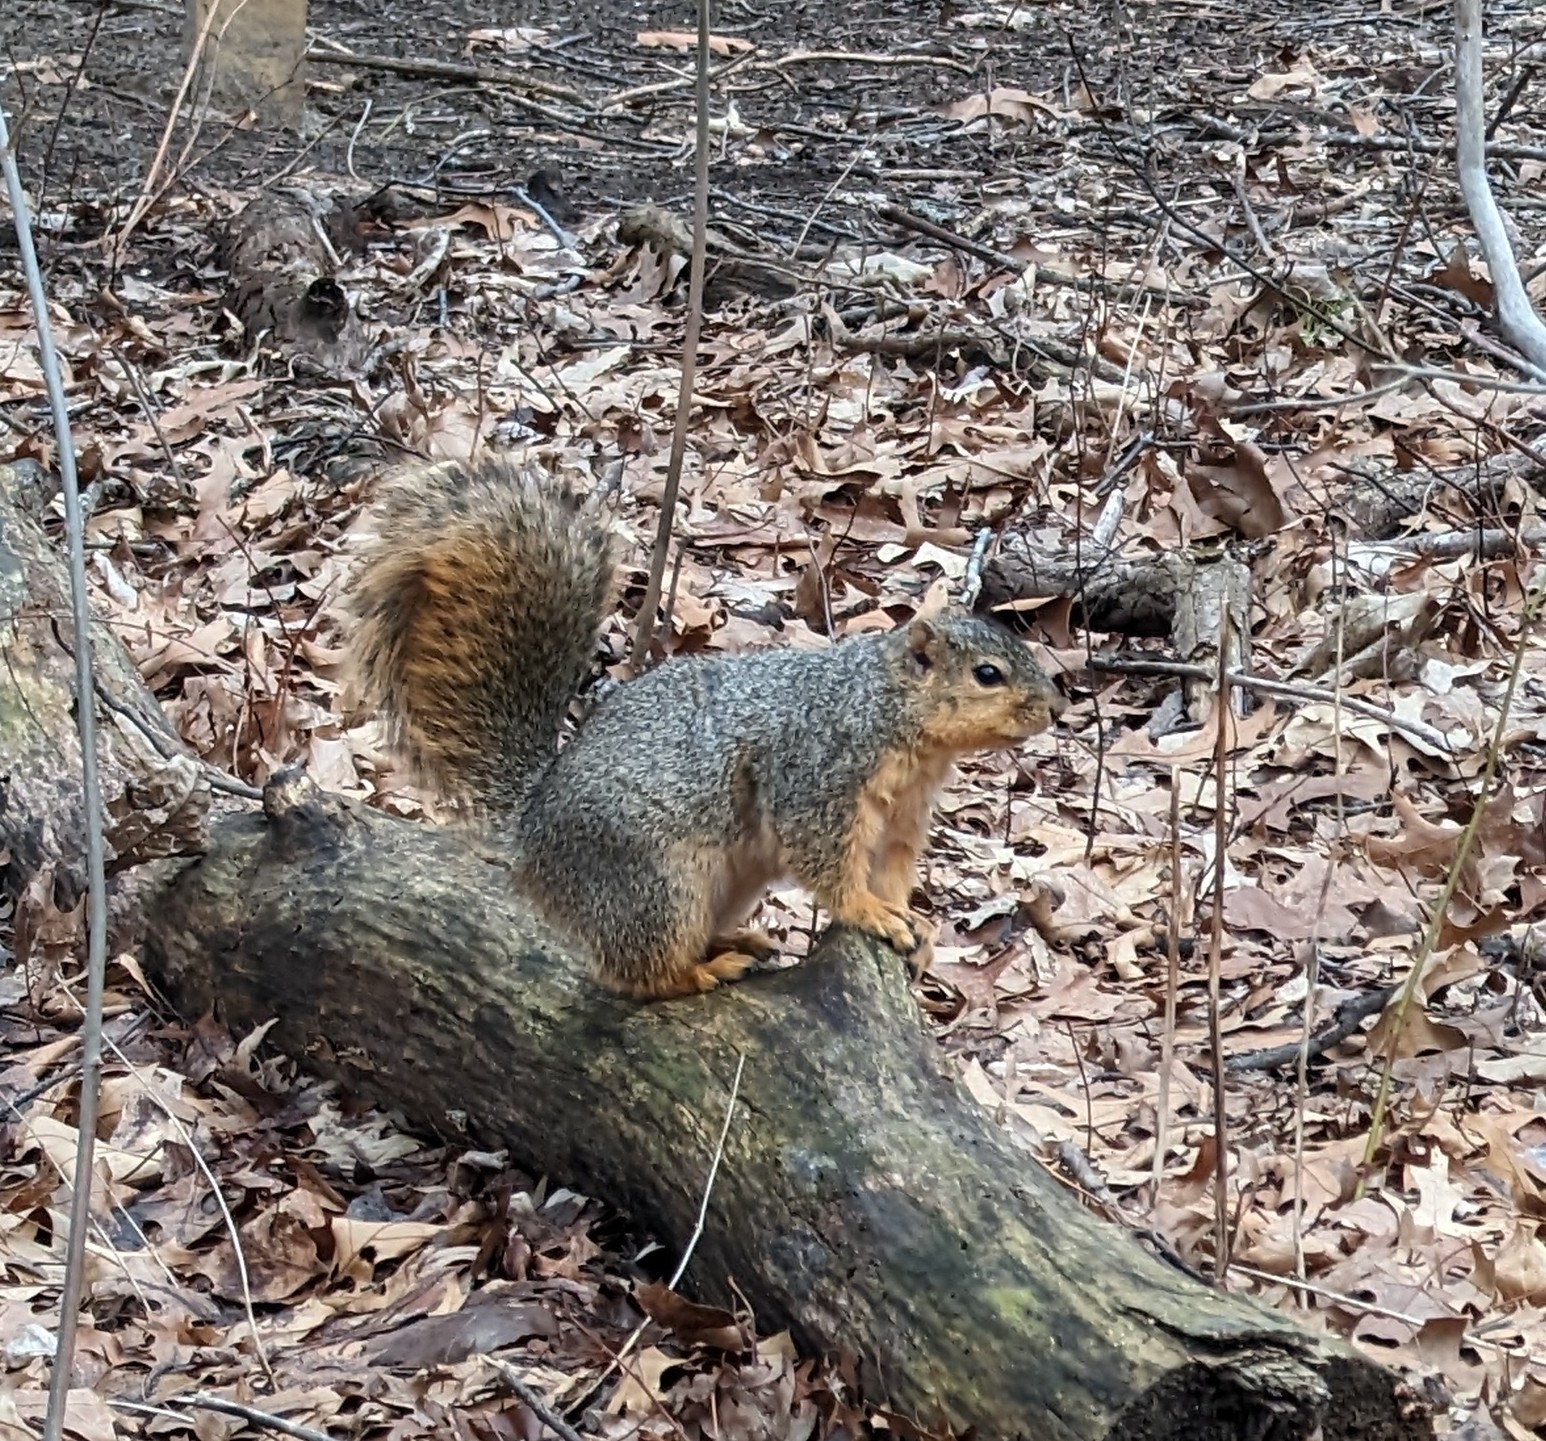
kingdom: Animalia
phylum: Chordata
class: Mammalia
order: Rodentia
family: Sciuridae
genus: Sciurus
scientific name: Sciurus niger
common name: Fox squirrel
